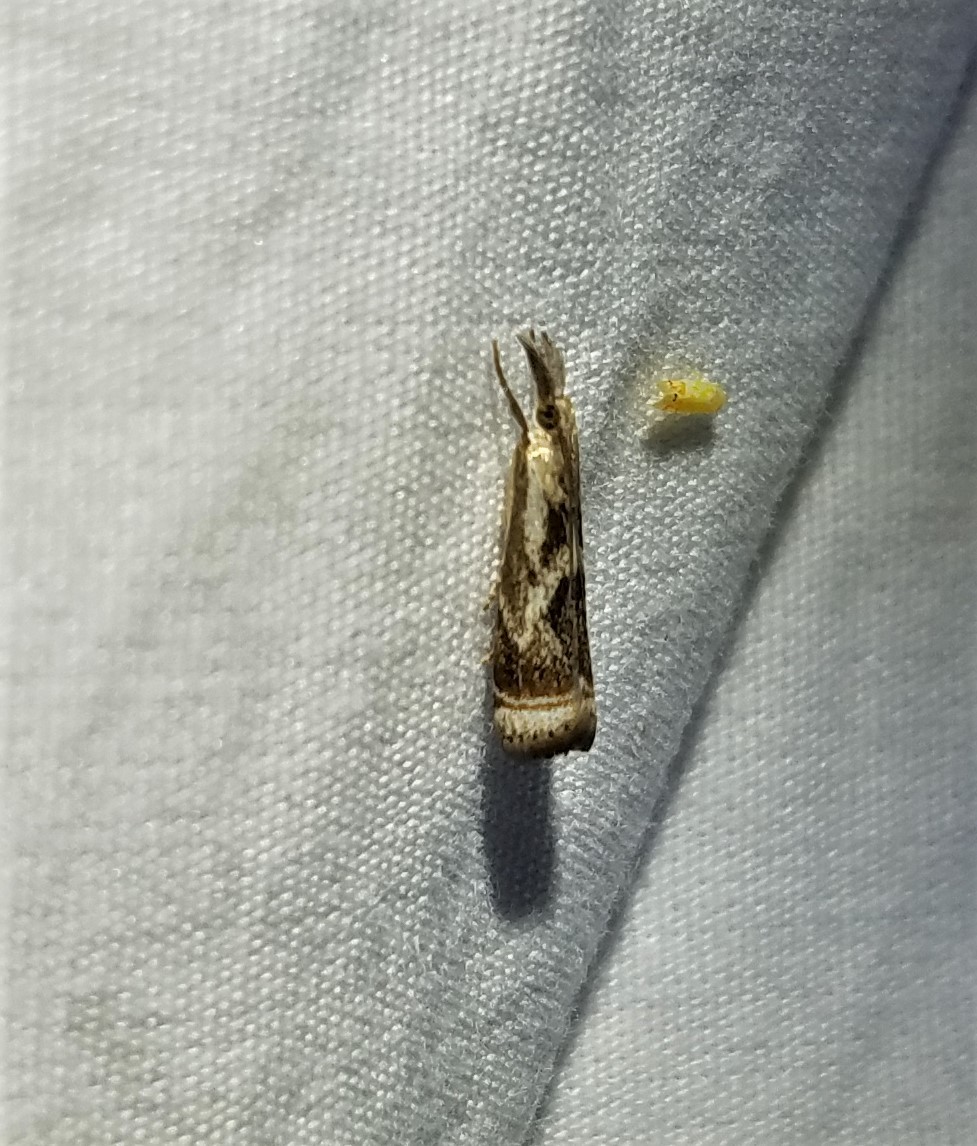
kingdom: Animalia
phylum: Arthropoda
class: Insecta
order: Lepidoptera
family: Crambidae
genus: Microcrambus
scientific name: Microcrambus elegans
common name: Elegant grass-veneer
